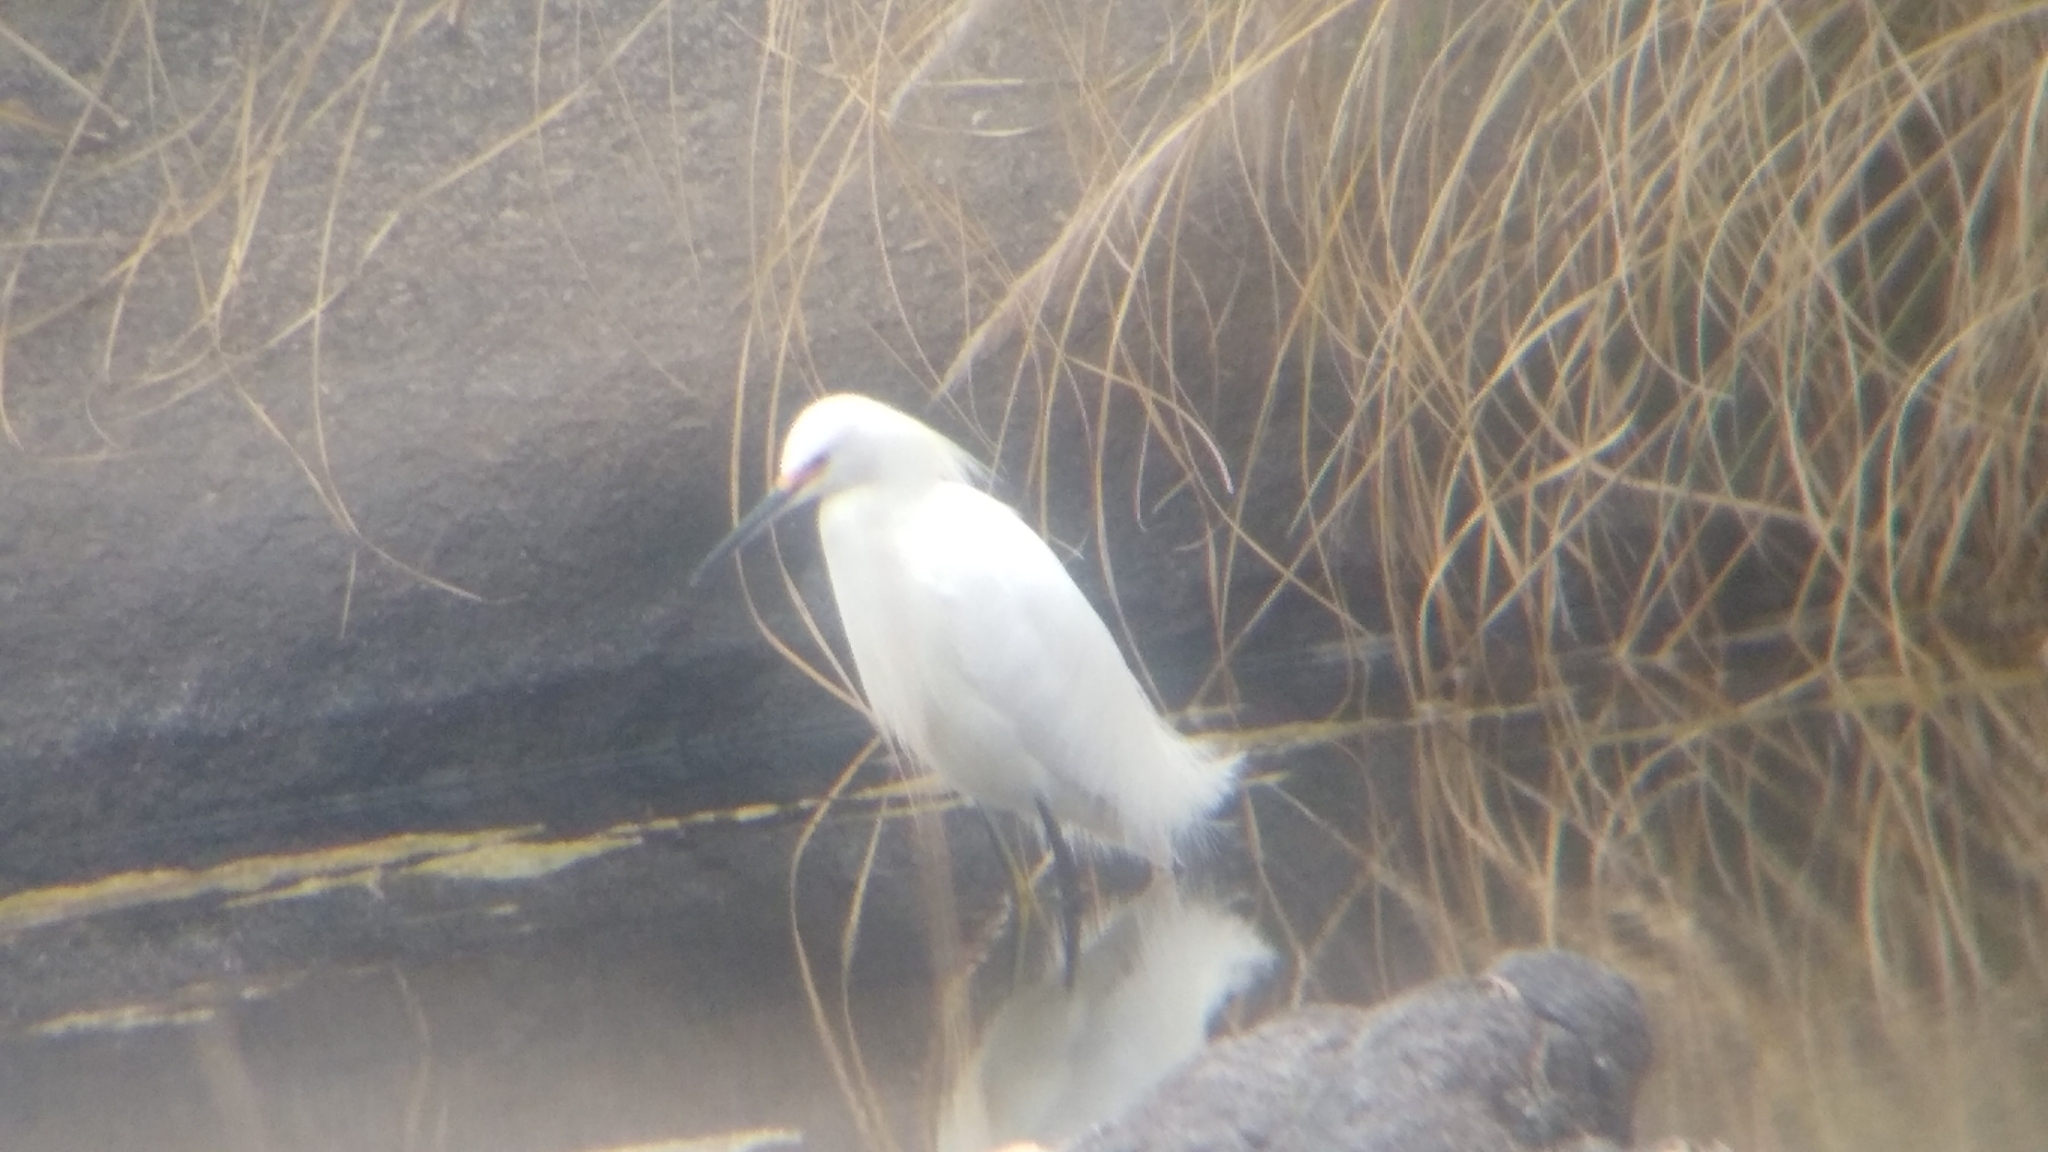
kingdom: Animalia
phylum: Chordata
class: Aves
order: Pelecaniformes
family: Ardeidae
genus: Egretta
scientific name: Egretta thula
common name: Snowy egret
